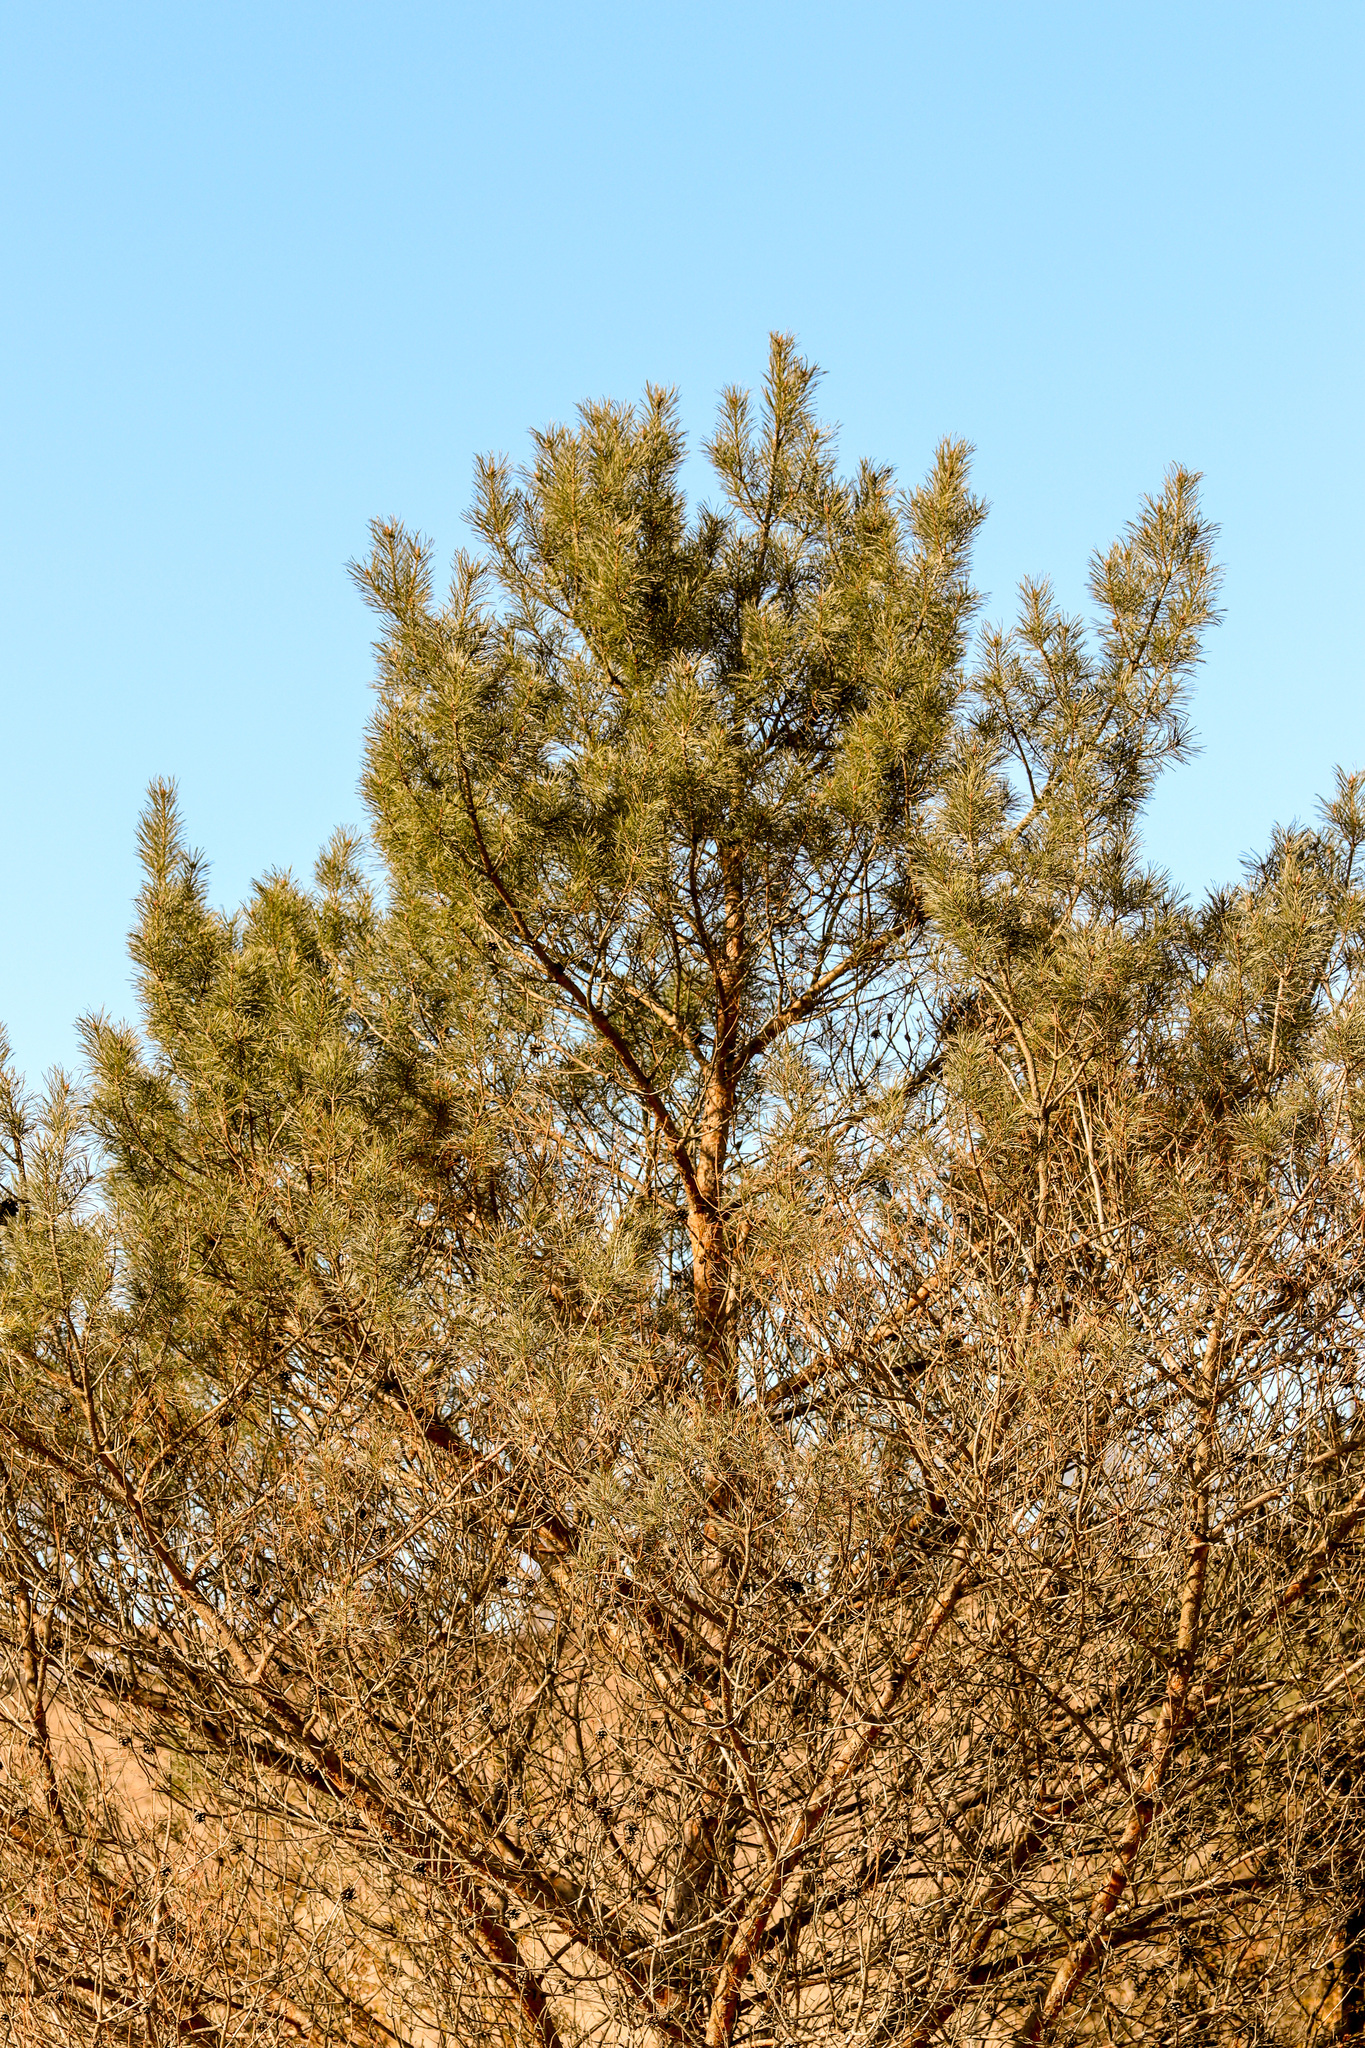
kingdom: Plantae
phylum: Tracheophyta
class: Pinopsida
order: Pinales
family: Pinaceae
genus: Pinus
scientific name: Pinus sylvestris
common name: Scots pine
